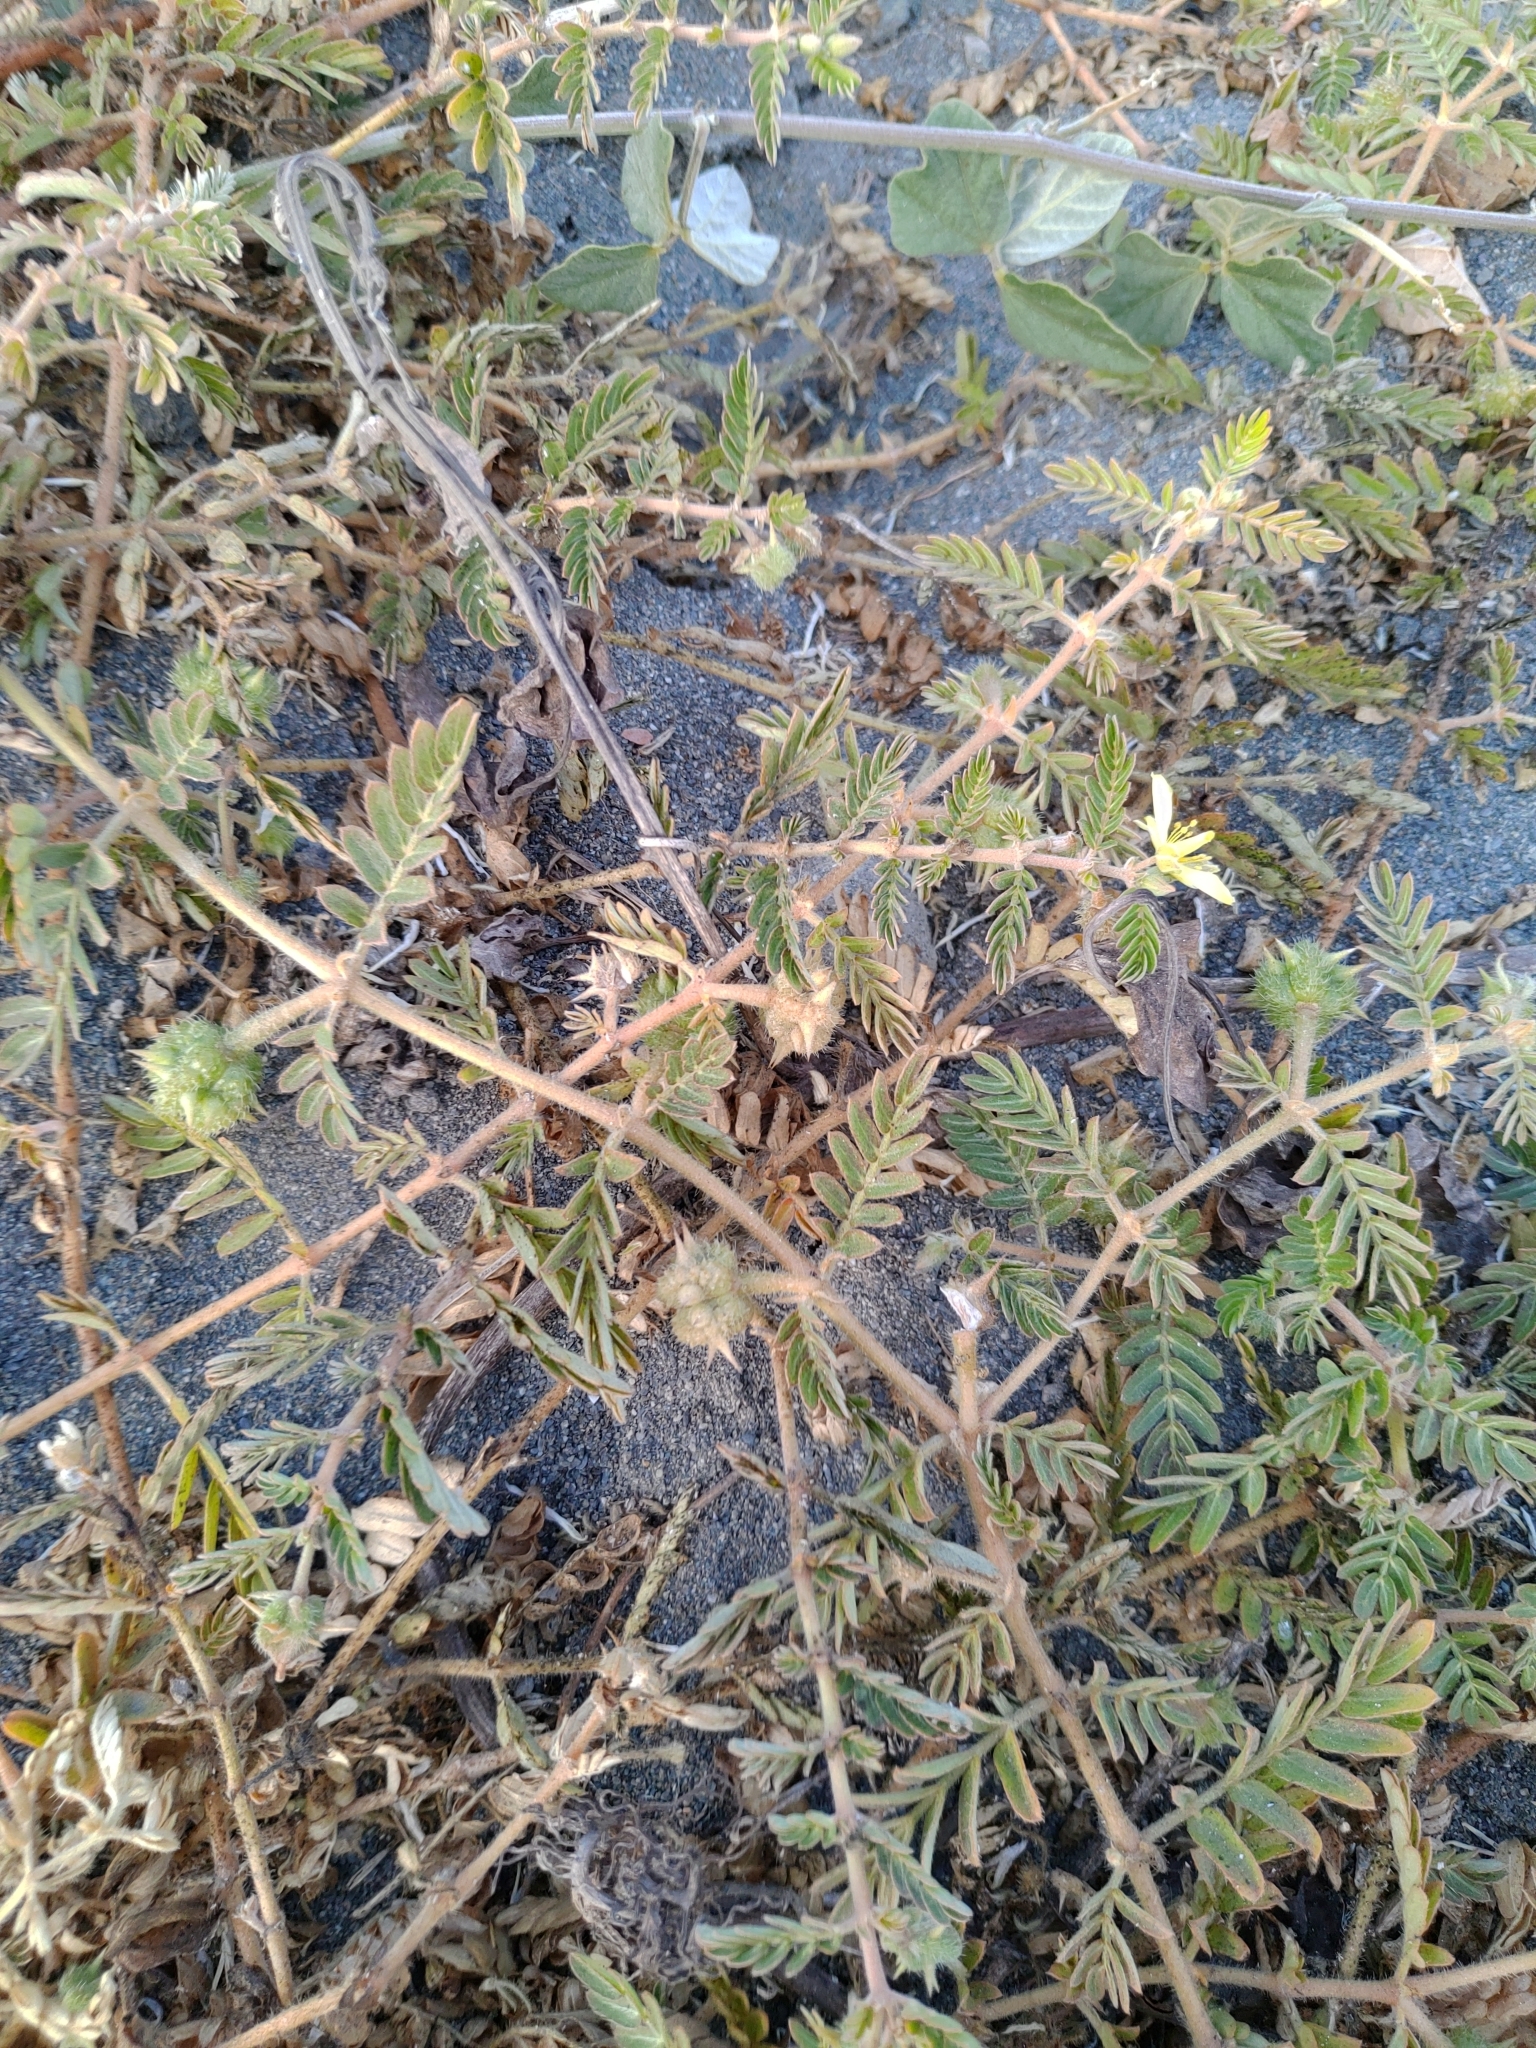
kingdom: Plantae
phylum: Tracheophyta
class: Magnoliopsida
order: Zygophyllales
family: Zygophyllaceae
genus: Tribulus
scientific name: Tribulus cistoides
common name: Jamaican feverplant
